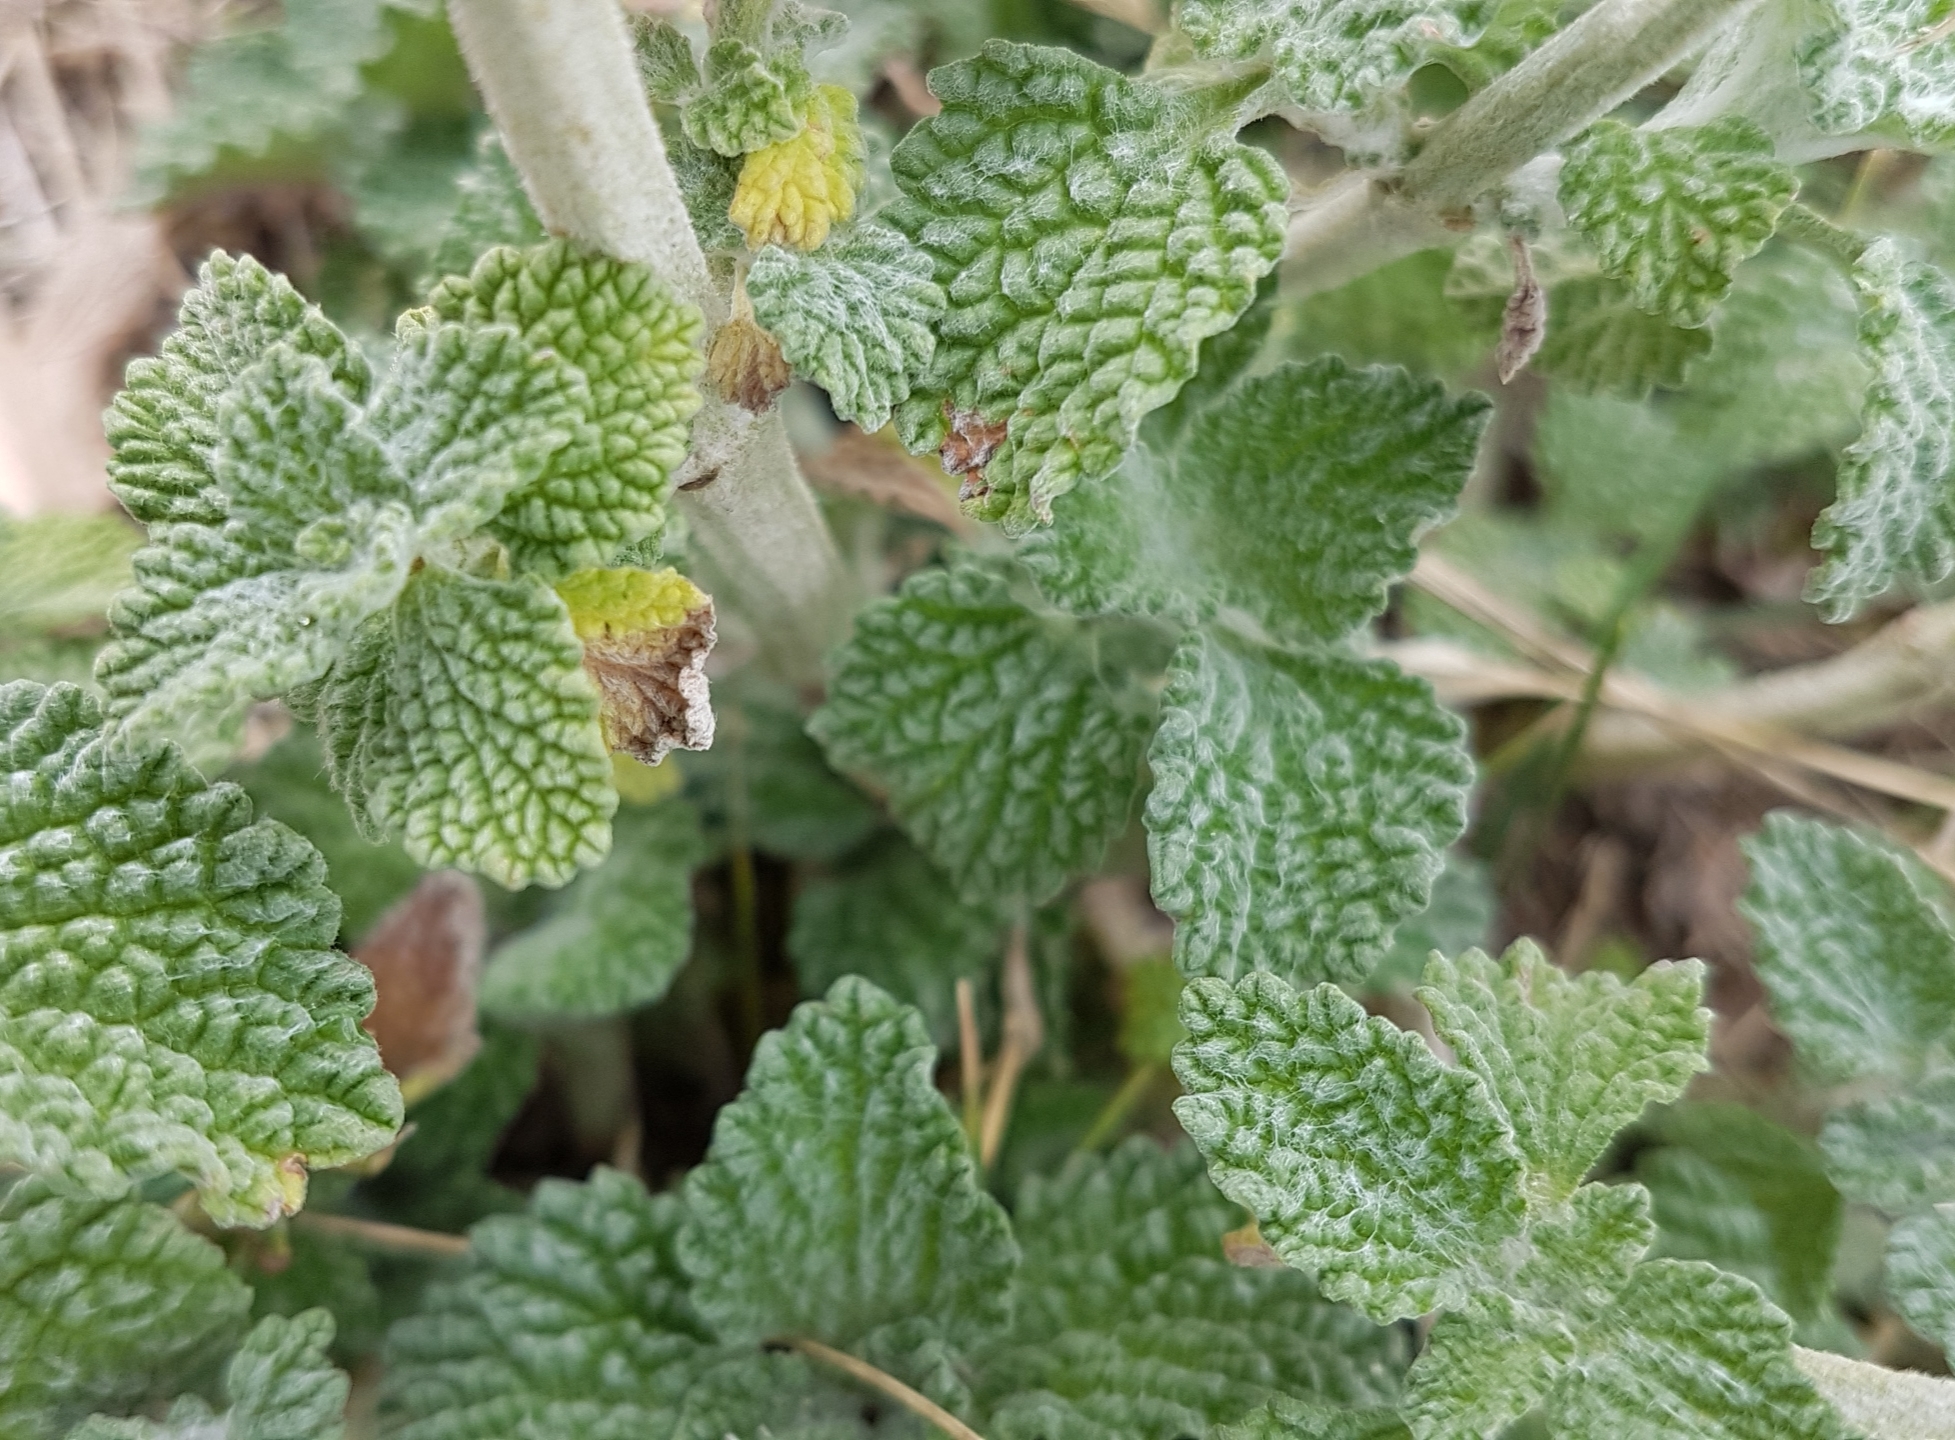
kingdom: Plantae
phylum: Tracheophyta
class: Magnoliopsida
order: Fabales
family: Fabaceae
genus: Medicago
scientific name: Medicago sativa
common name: Alfalfa
